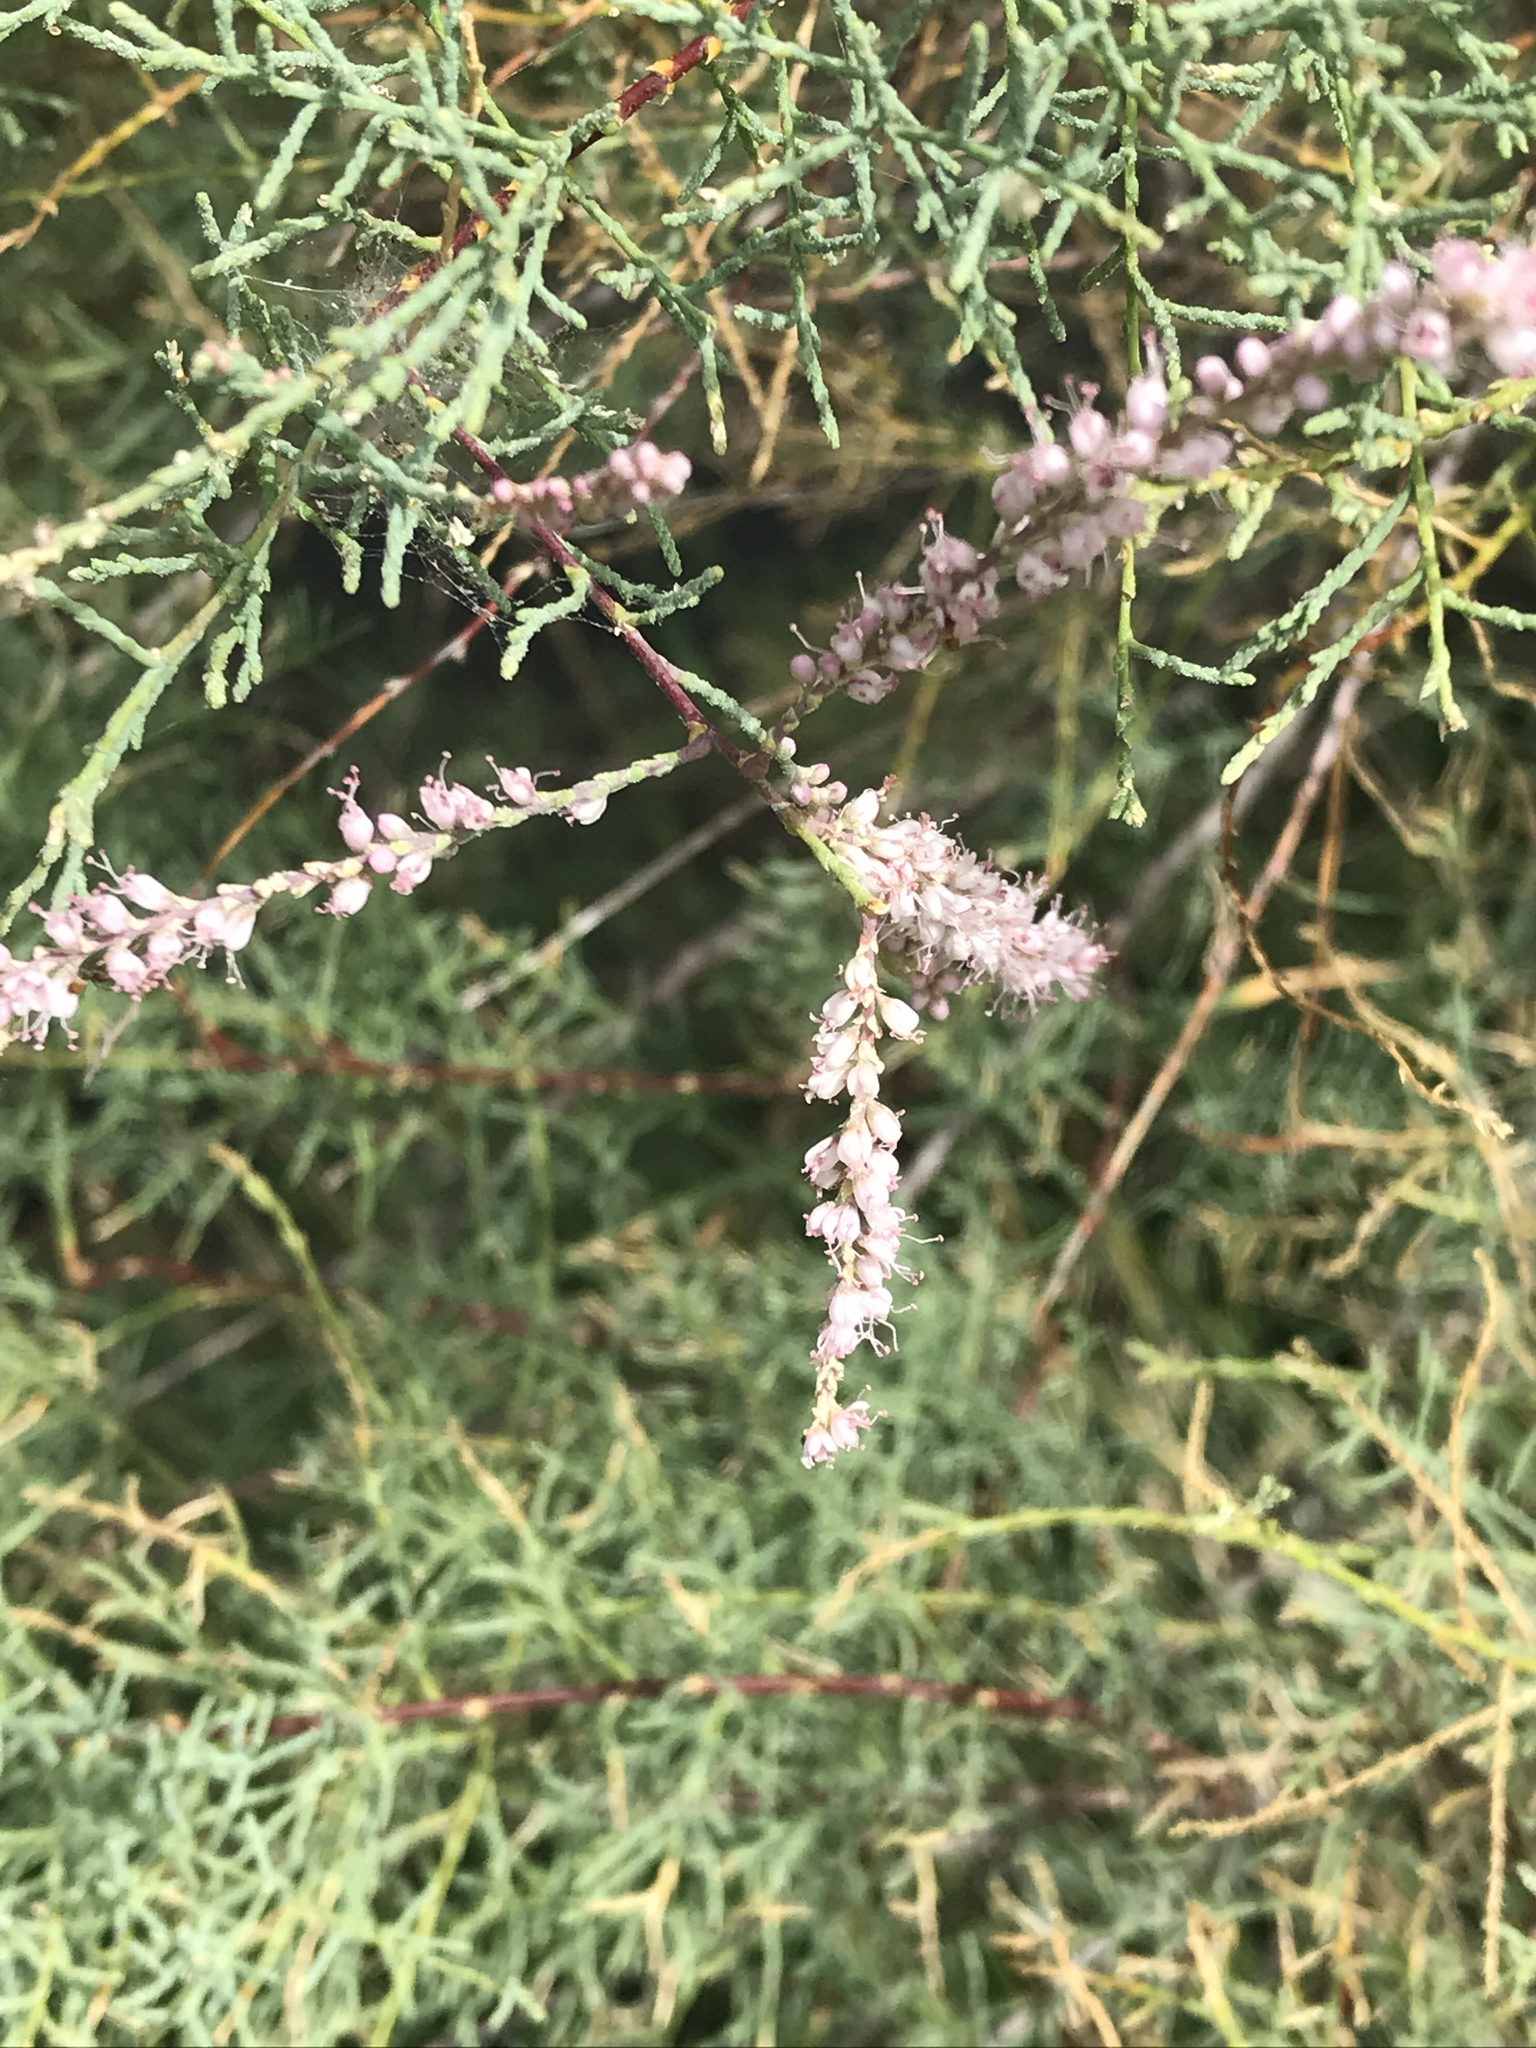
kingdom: Plantae
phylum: Tracheophyta
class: Magnoliopsida
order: Caryophyllales
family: Tamaricaceae
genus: Tamarix
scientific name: Tamarix ramosissima
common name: Pink tamarisk
